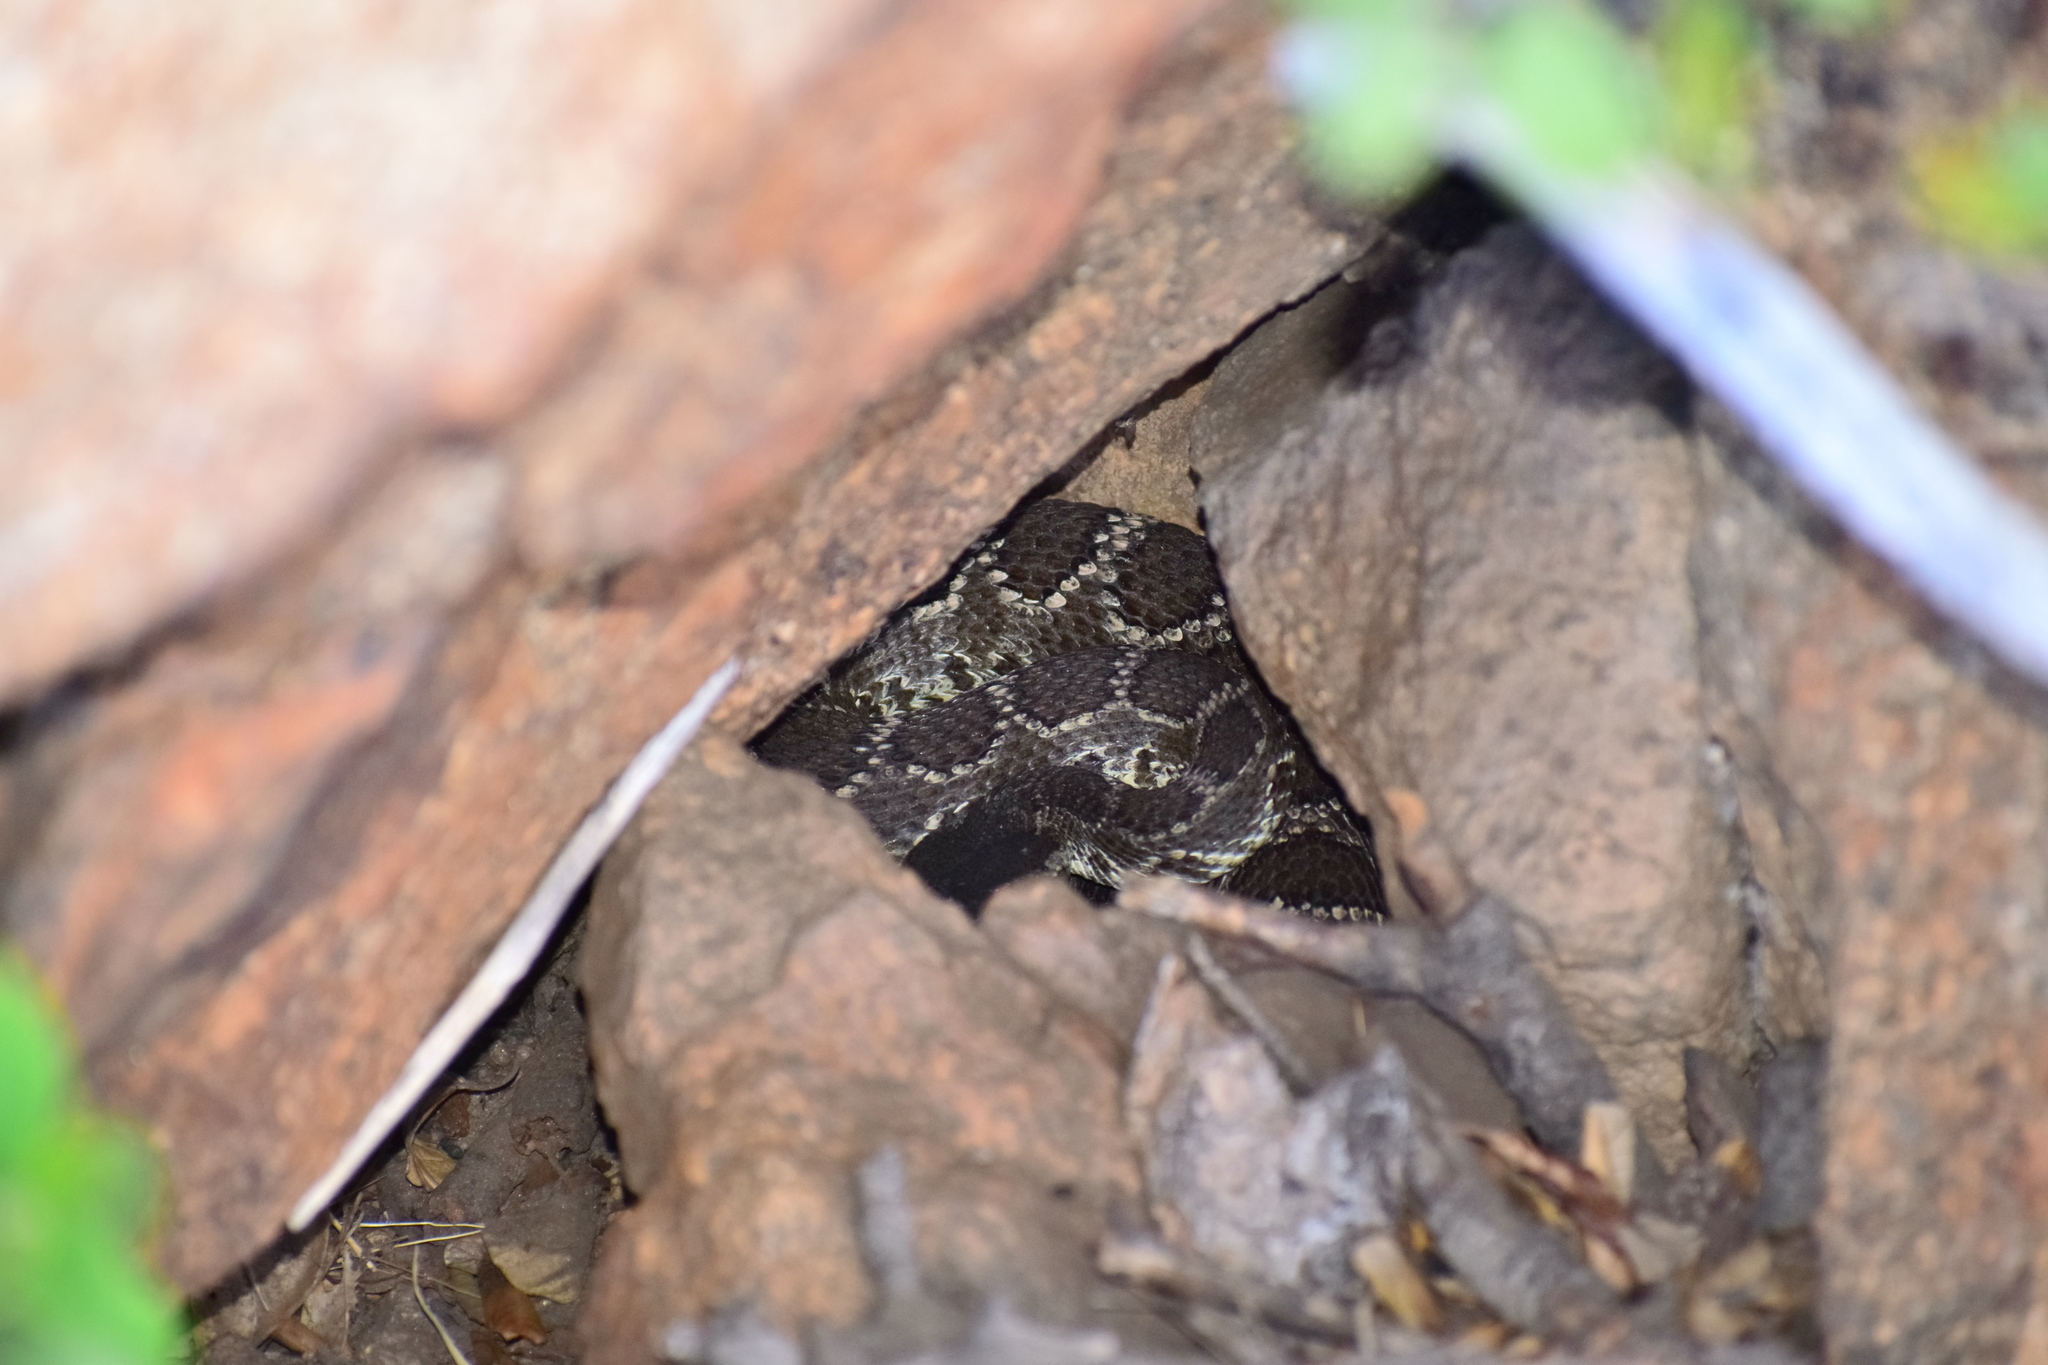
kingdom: Animalia
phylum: Chordata
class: Squamata
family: Viperidae
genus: Crotalus
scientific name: Crotalus oreganus
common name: Abyssus
